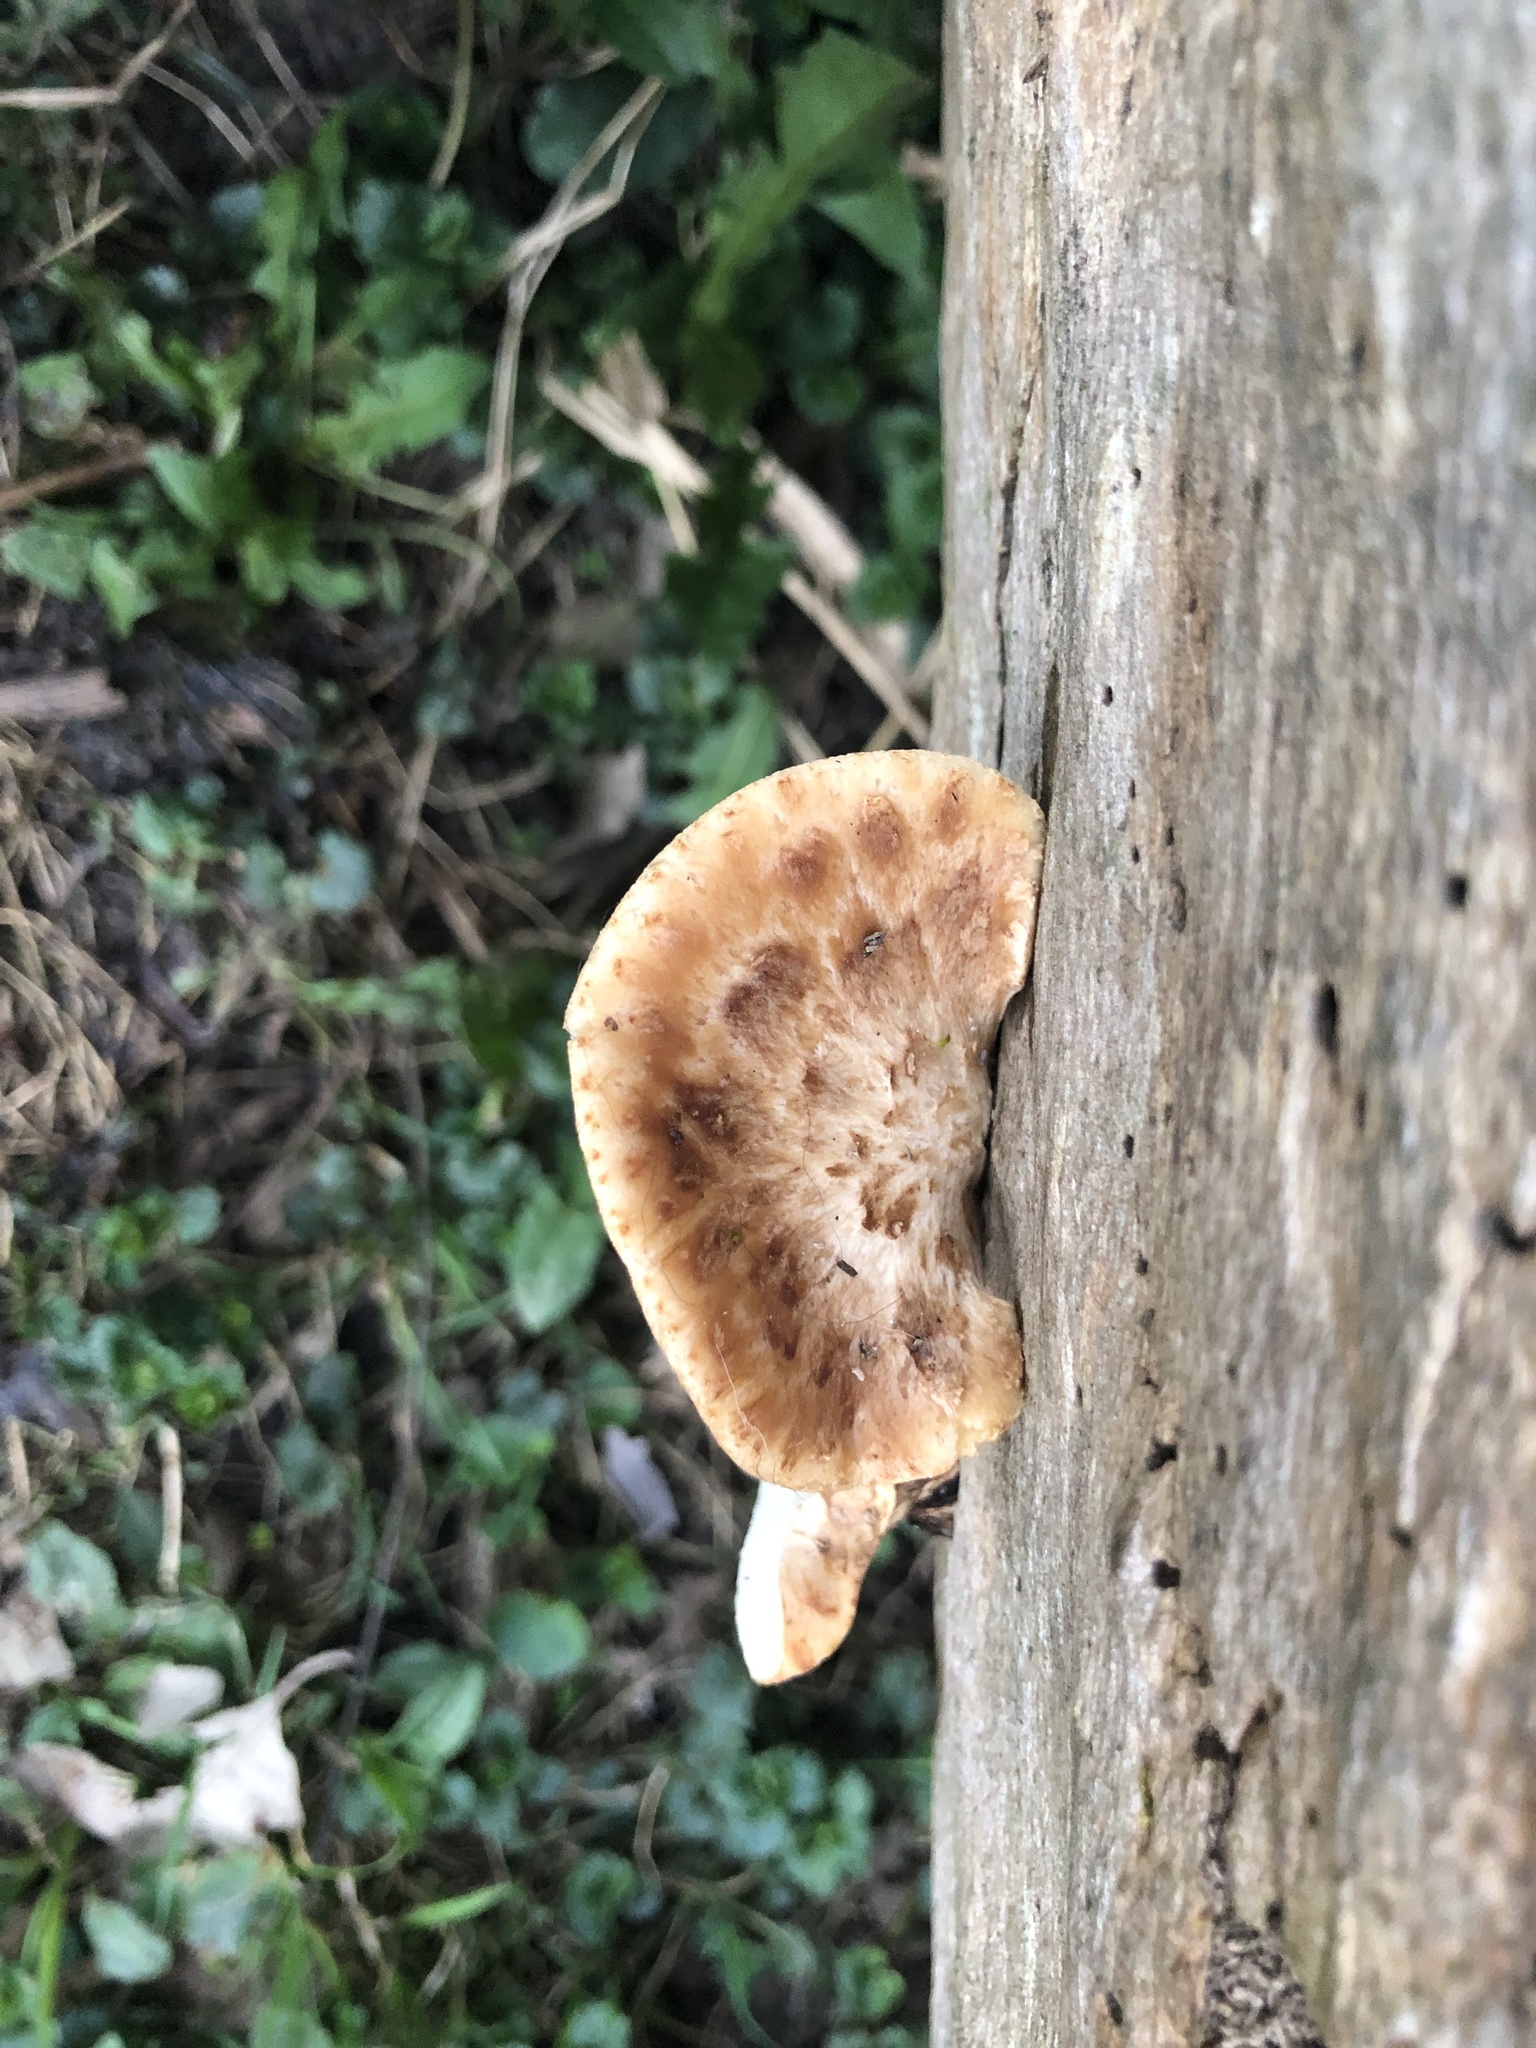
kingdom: Fungi
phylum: Basidiomycota
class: Agaricomycetes
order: Polyporales
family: Polyporaceae
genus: Cerioporus
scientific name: Cerioporus squamosus
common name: Dryad's saddle
